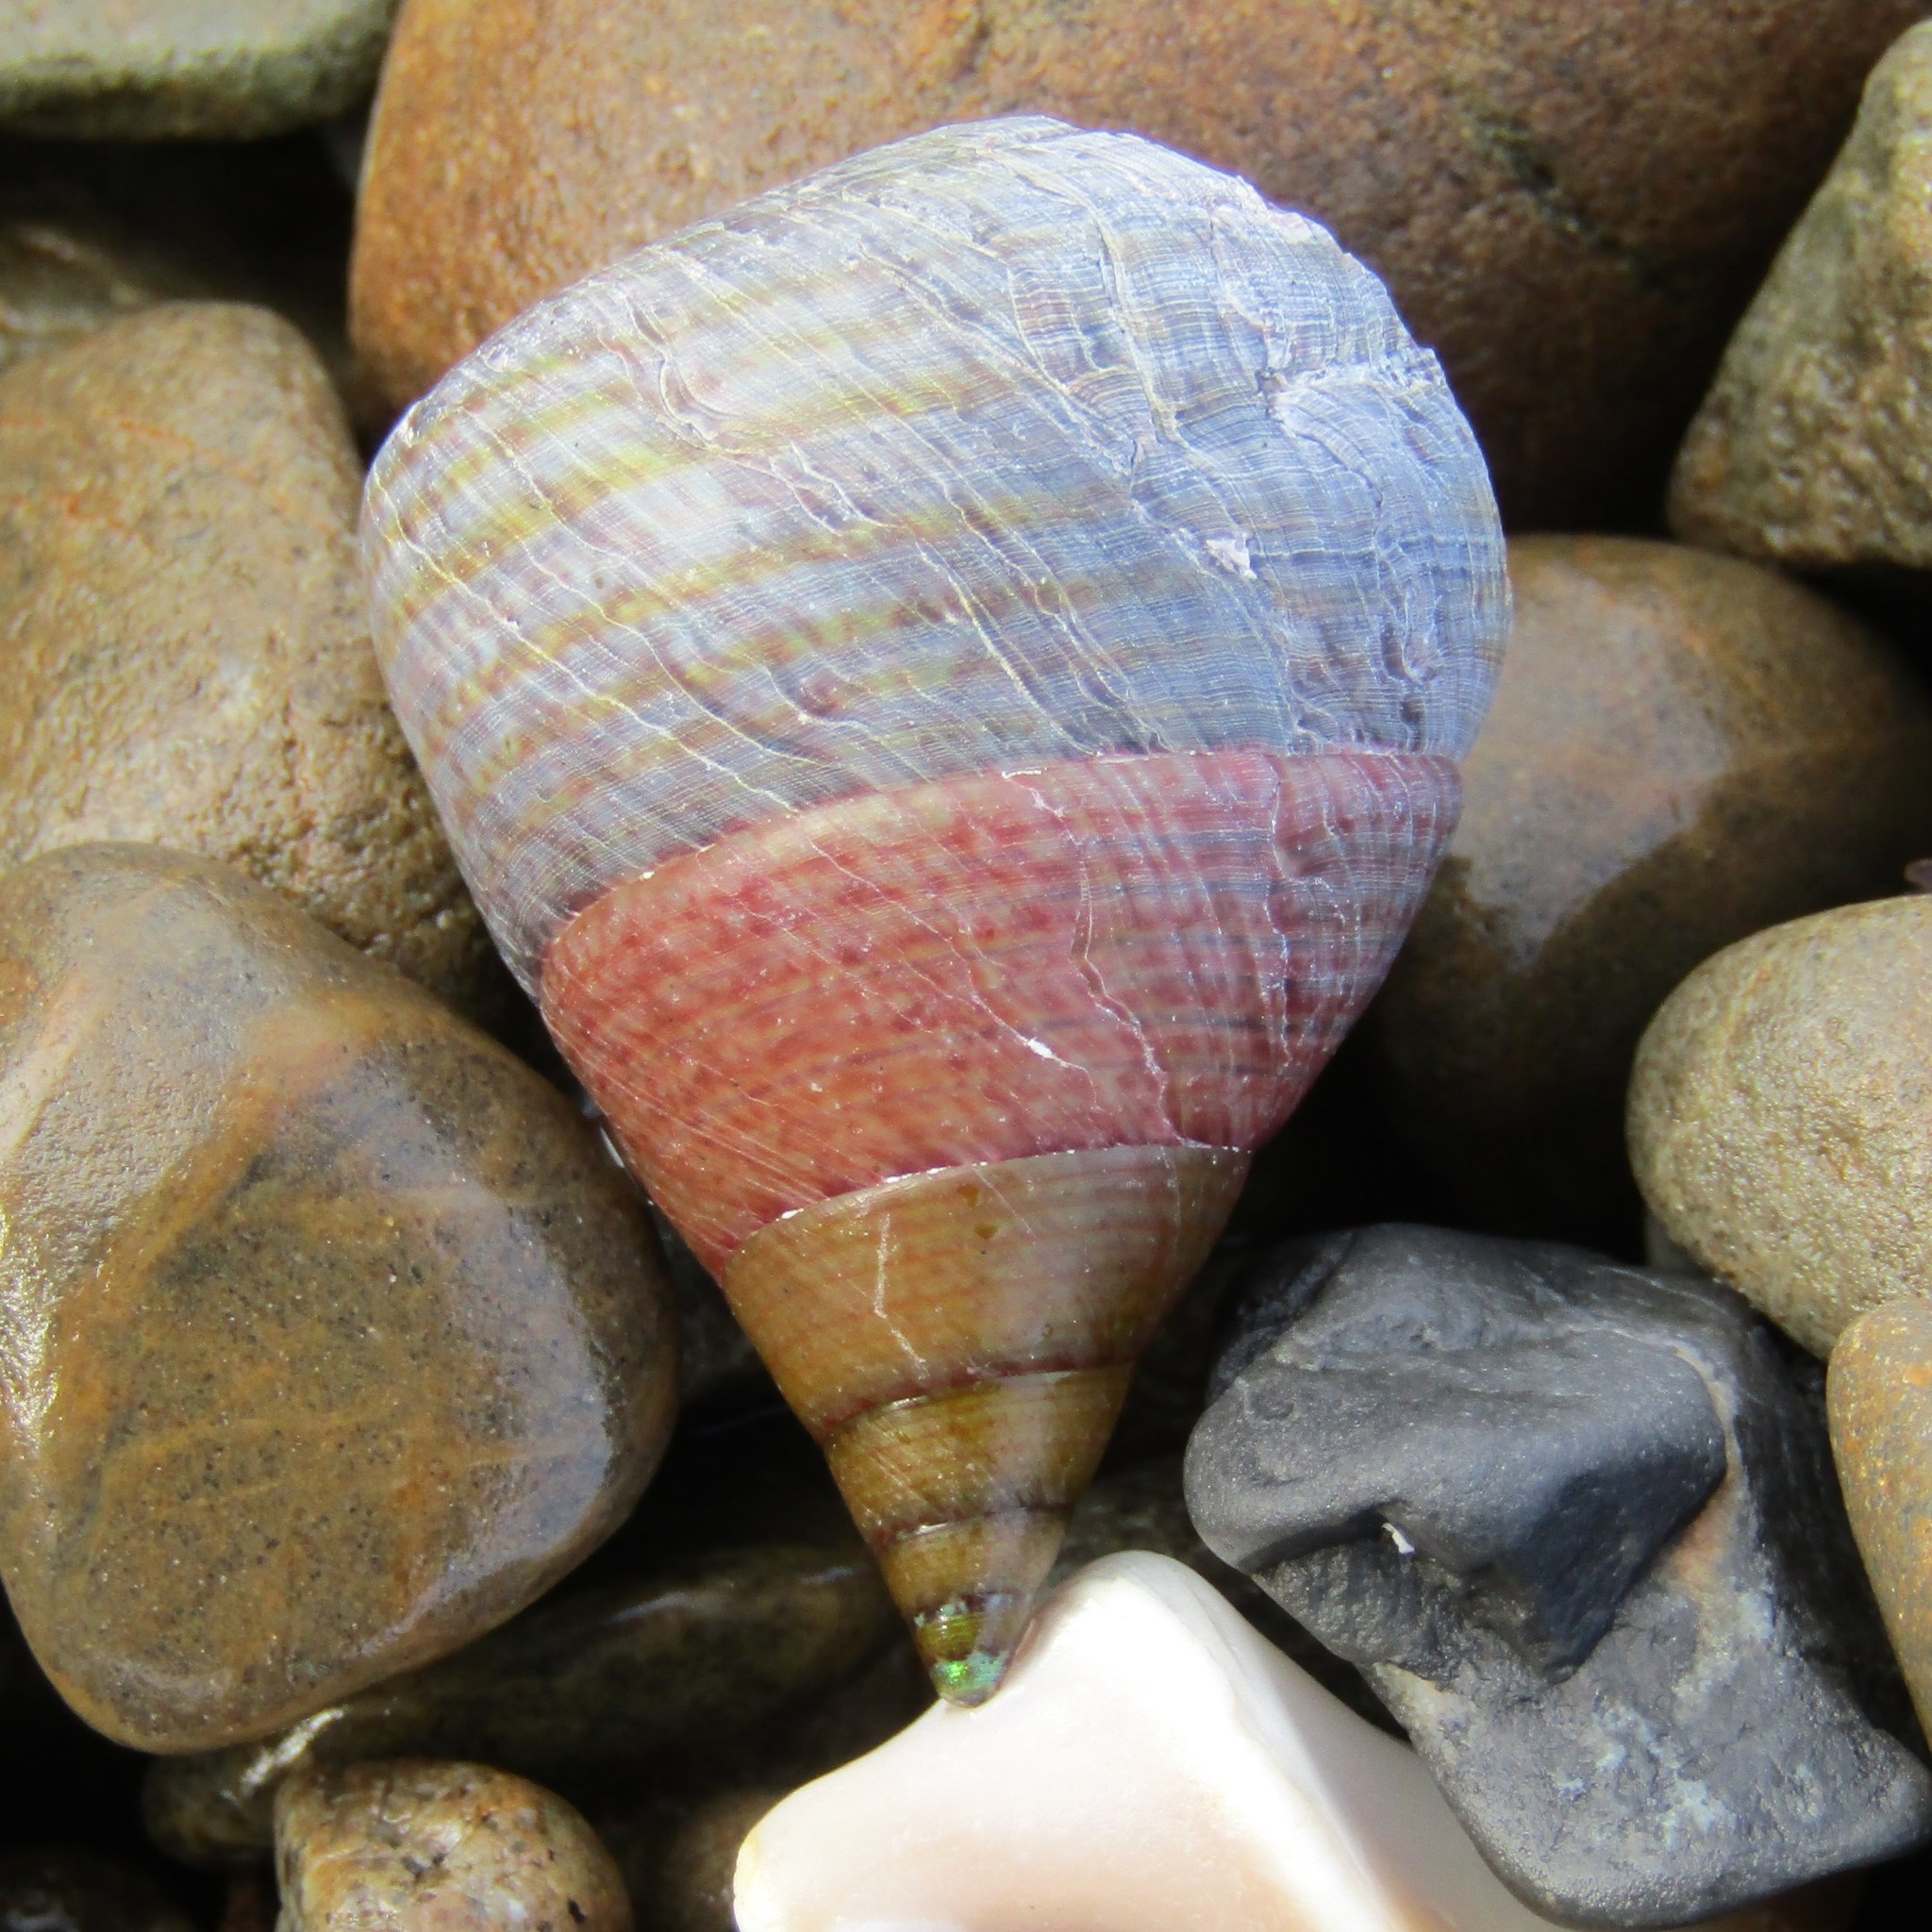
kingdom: Animalia
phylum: Mollusca
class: Gastropoda
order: Trochida
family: Trochidae
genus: Cantharidus
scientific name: Cantharidus opalus
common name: Opal jewel topsnail
